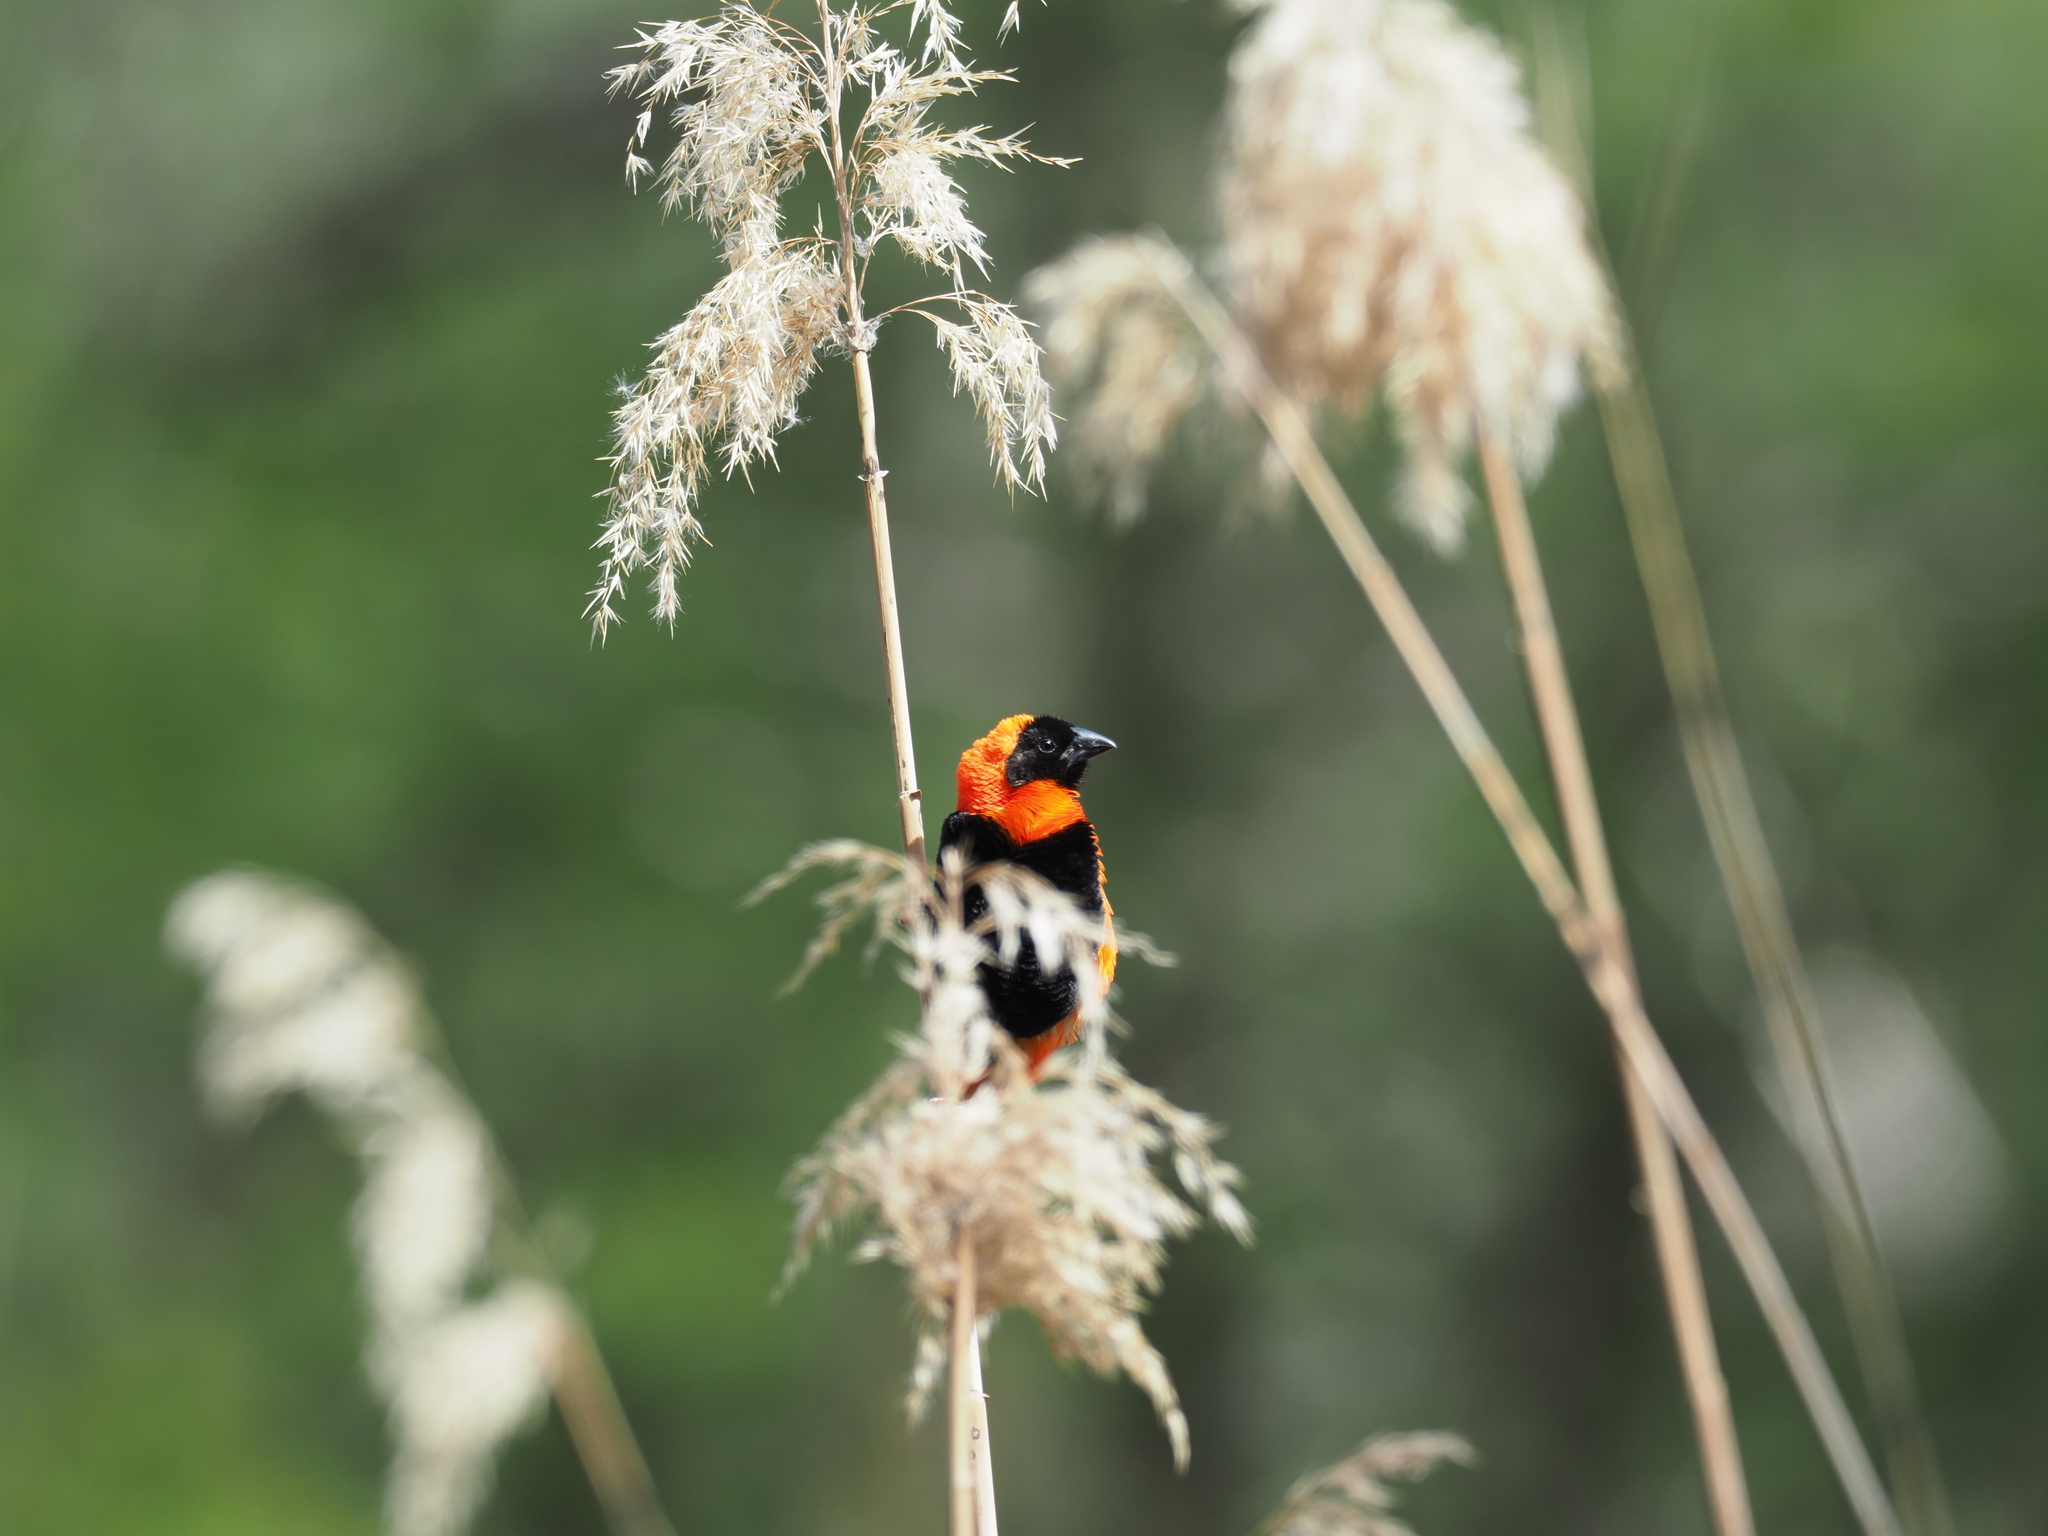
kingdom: Animalia
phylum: Chordata
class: Aves
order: Passeriformes
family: Ploceidae
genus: Euplectes
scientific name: Euplectes orix
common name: Southern red bishop
